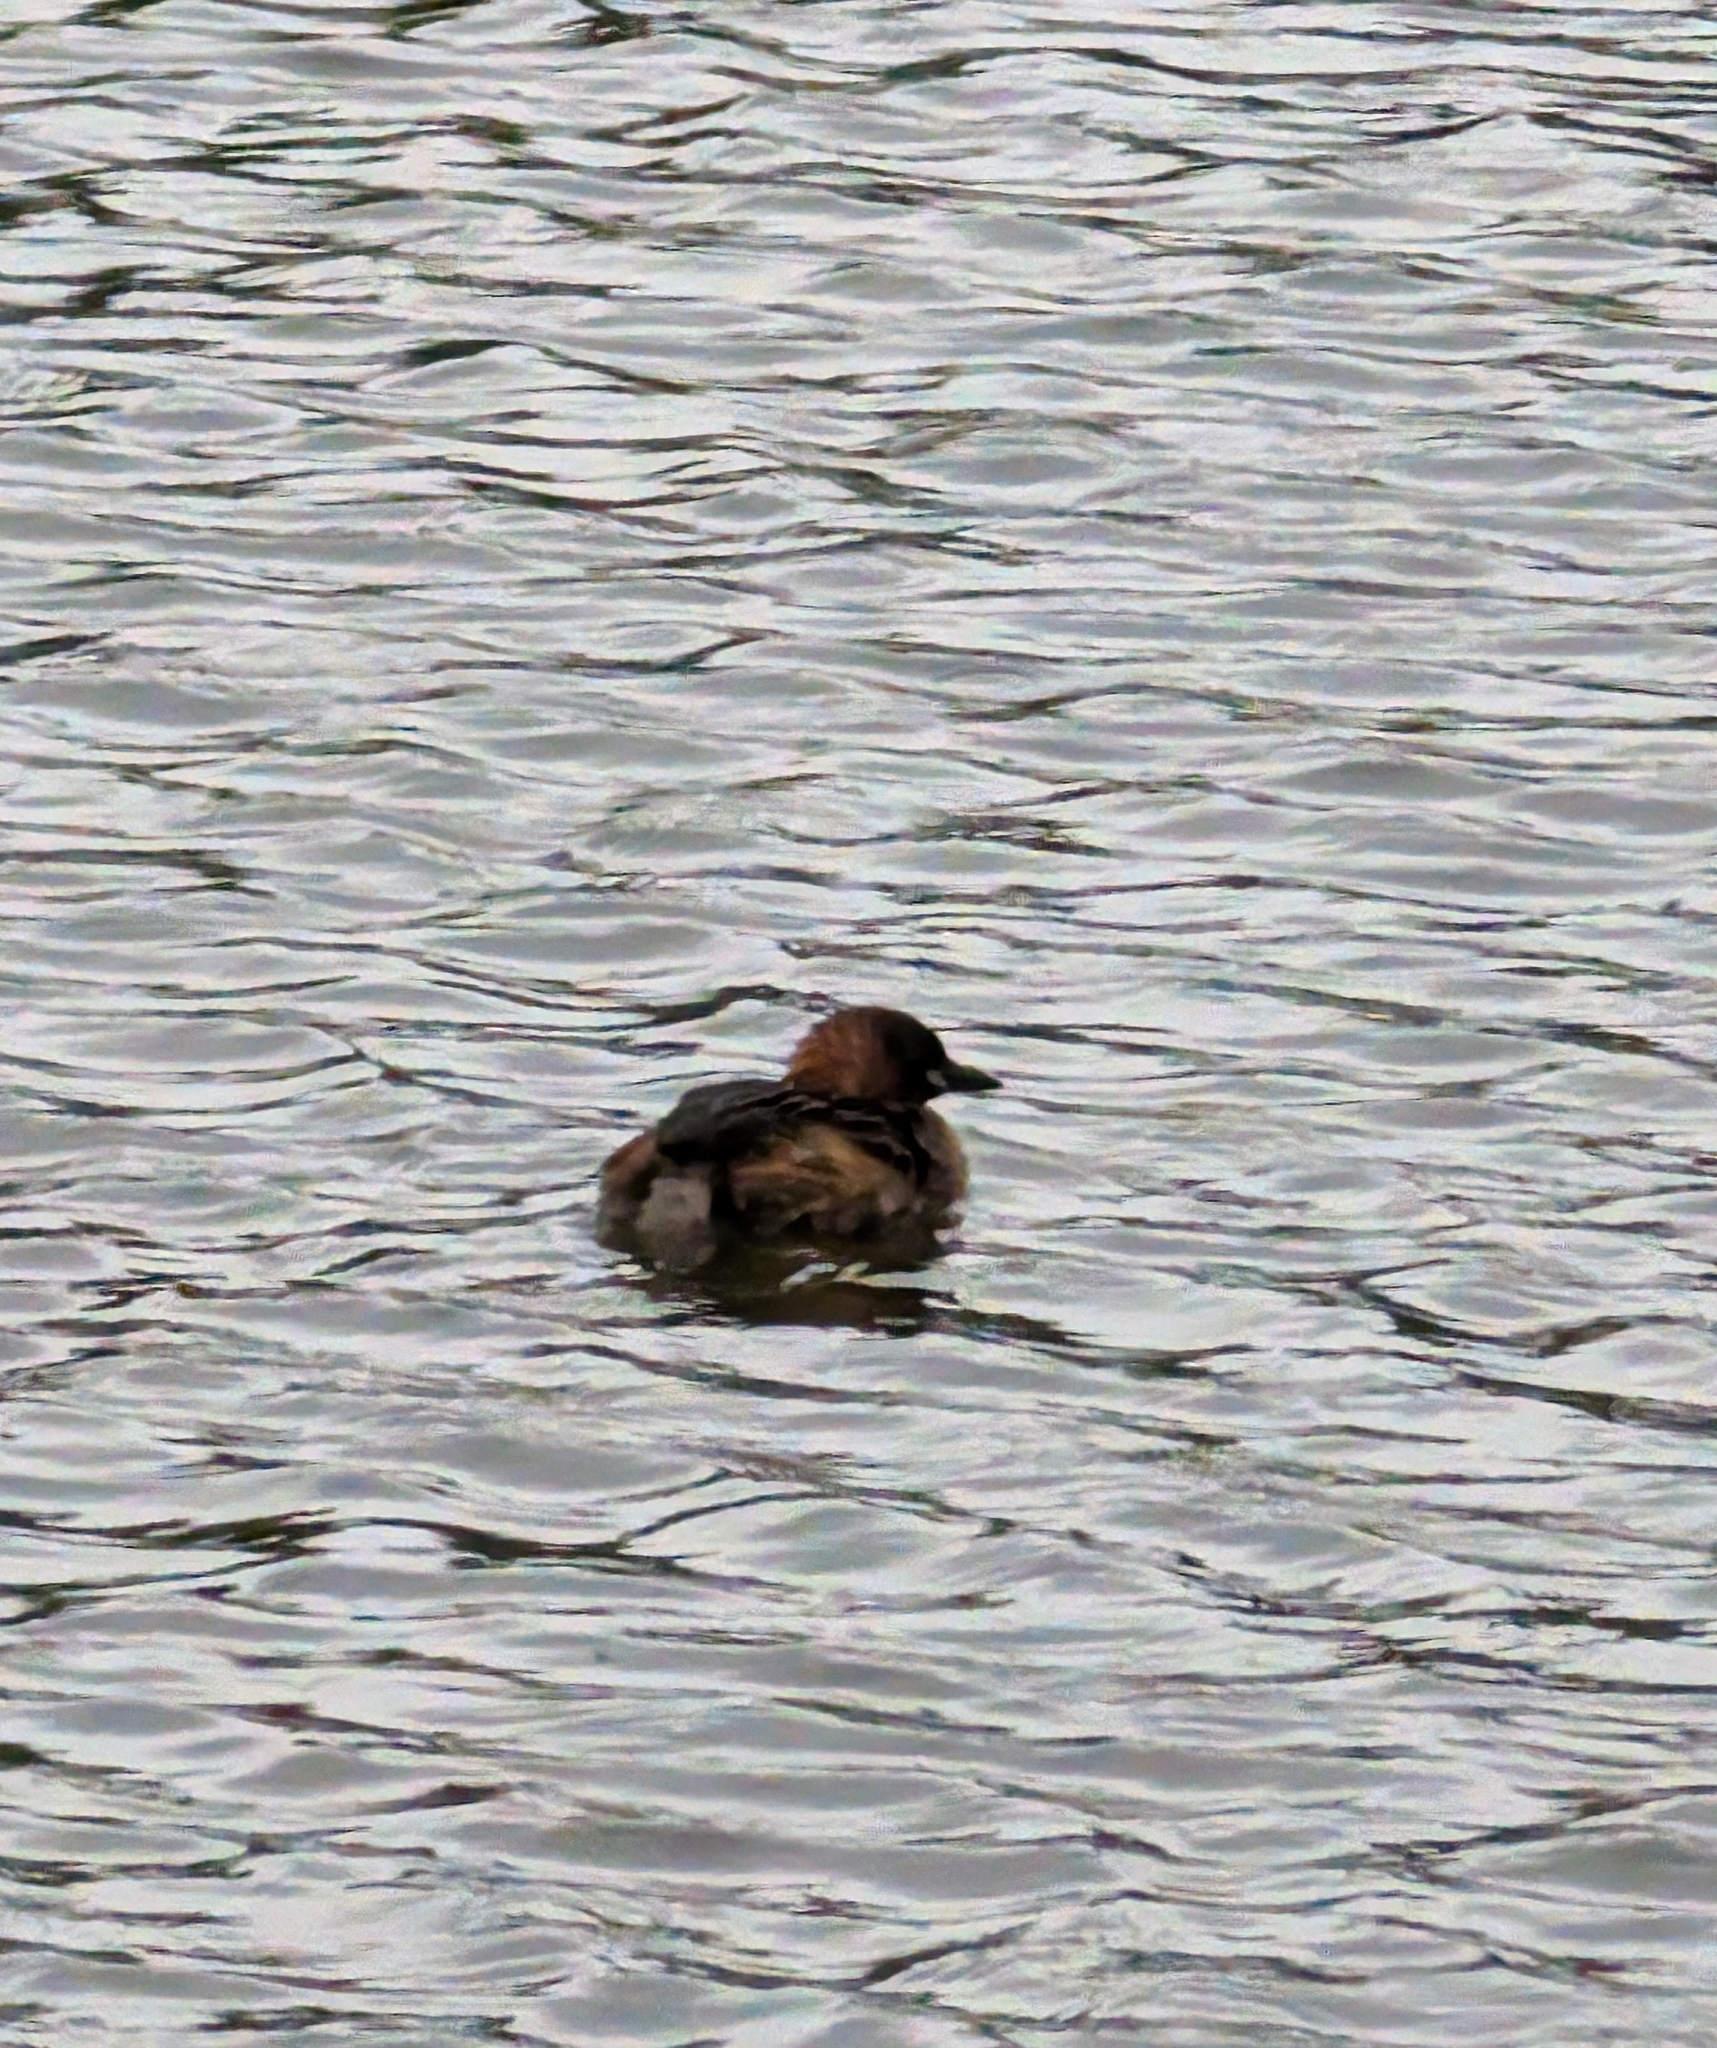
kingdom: Animalia
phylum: Chordata
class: Aves
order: Podicipediformes
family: Podicipedidae
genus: Tachybaptus
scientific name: Tachybaptus ruficollis
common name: Little grebe
